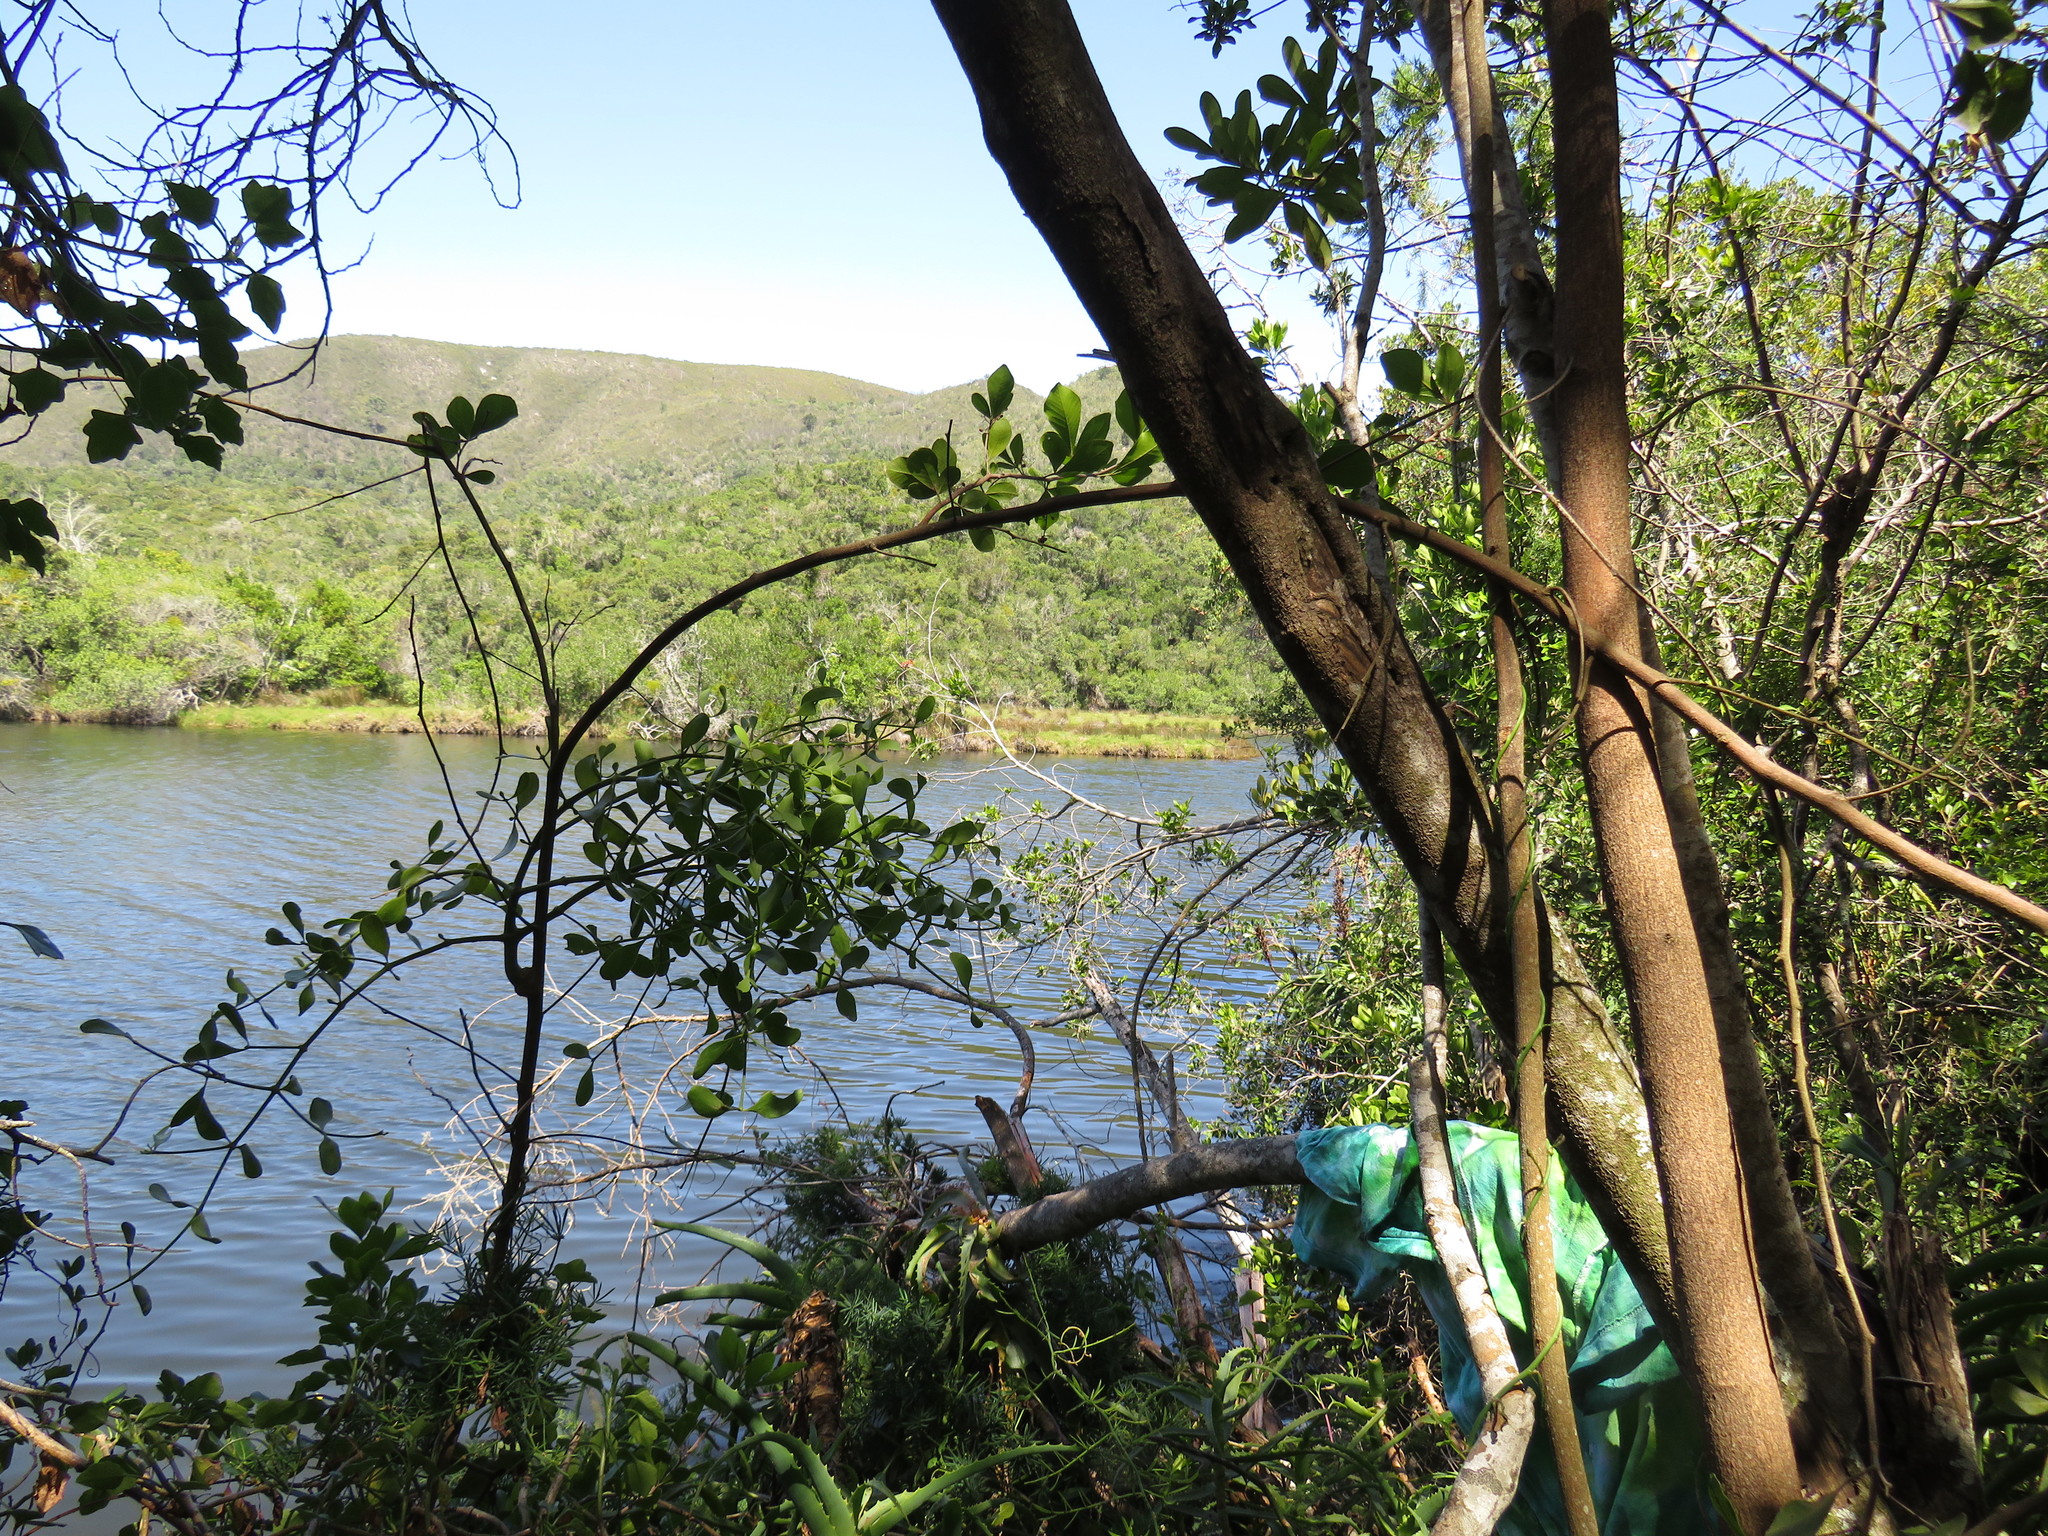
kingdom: Plantae
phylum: Tracheophyta
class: Magnoliopsida
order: Sapindales
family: Anacardiaceae
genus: Searsia
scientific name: Searsia lucida
